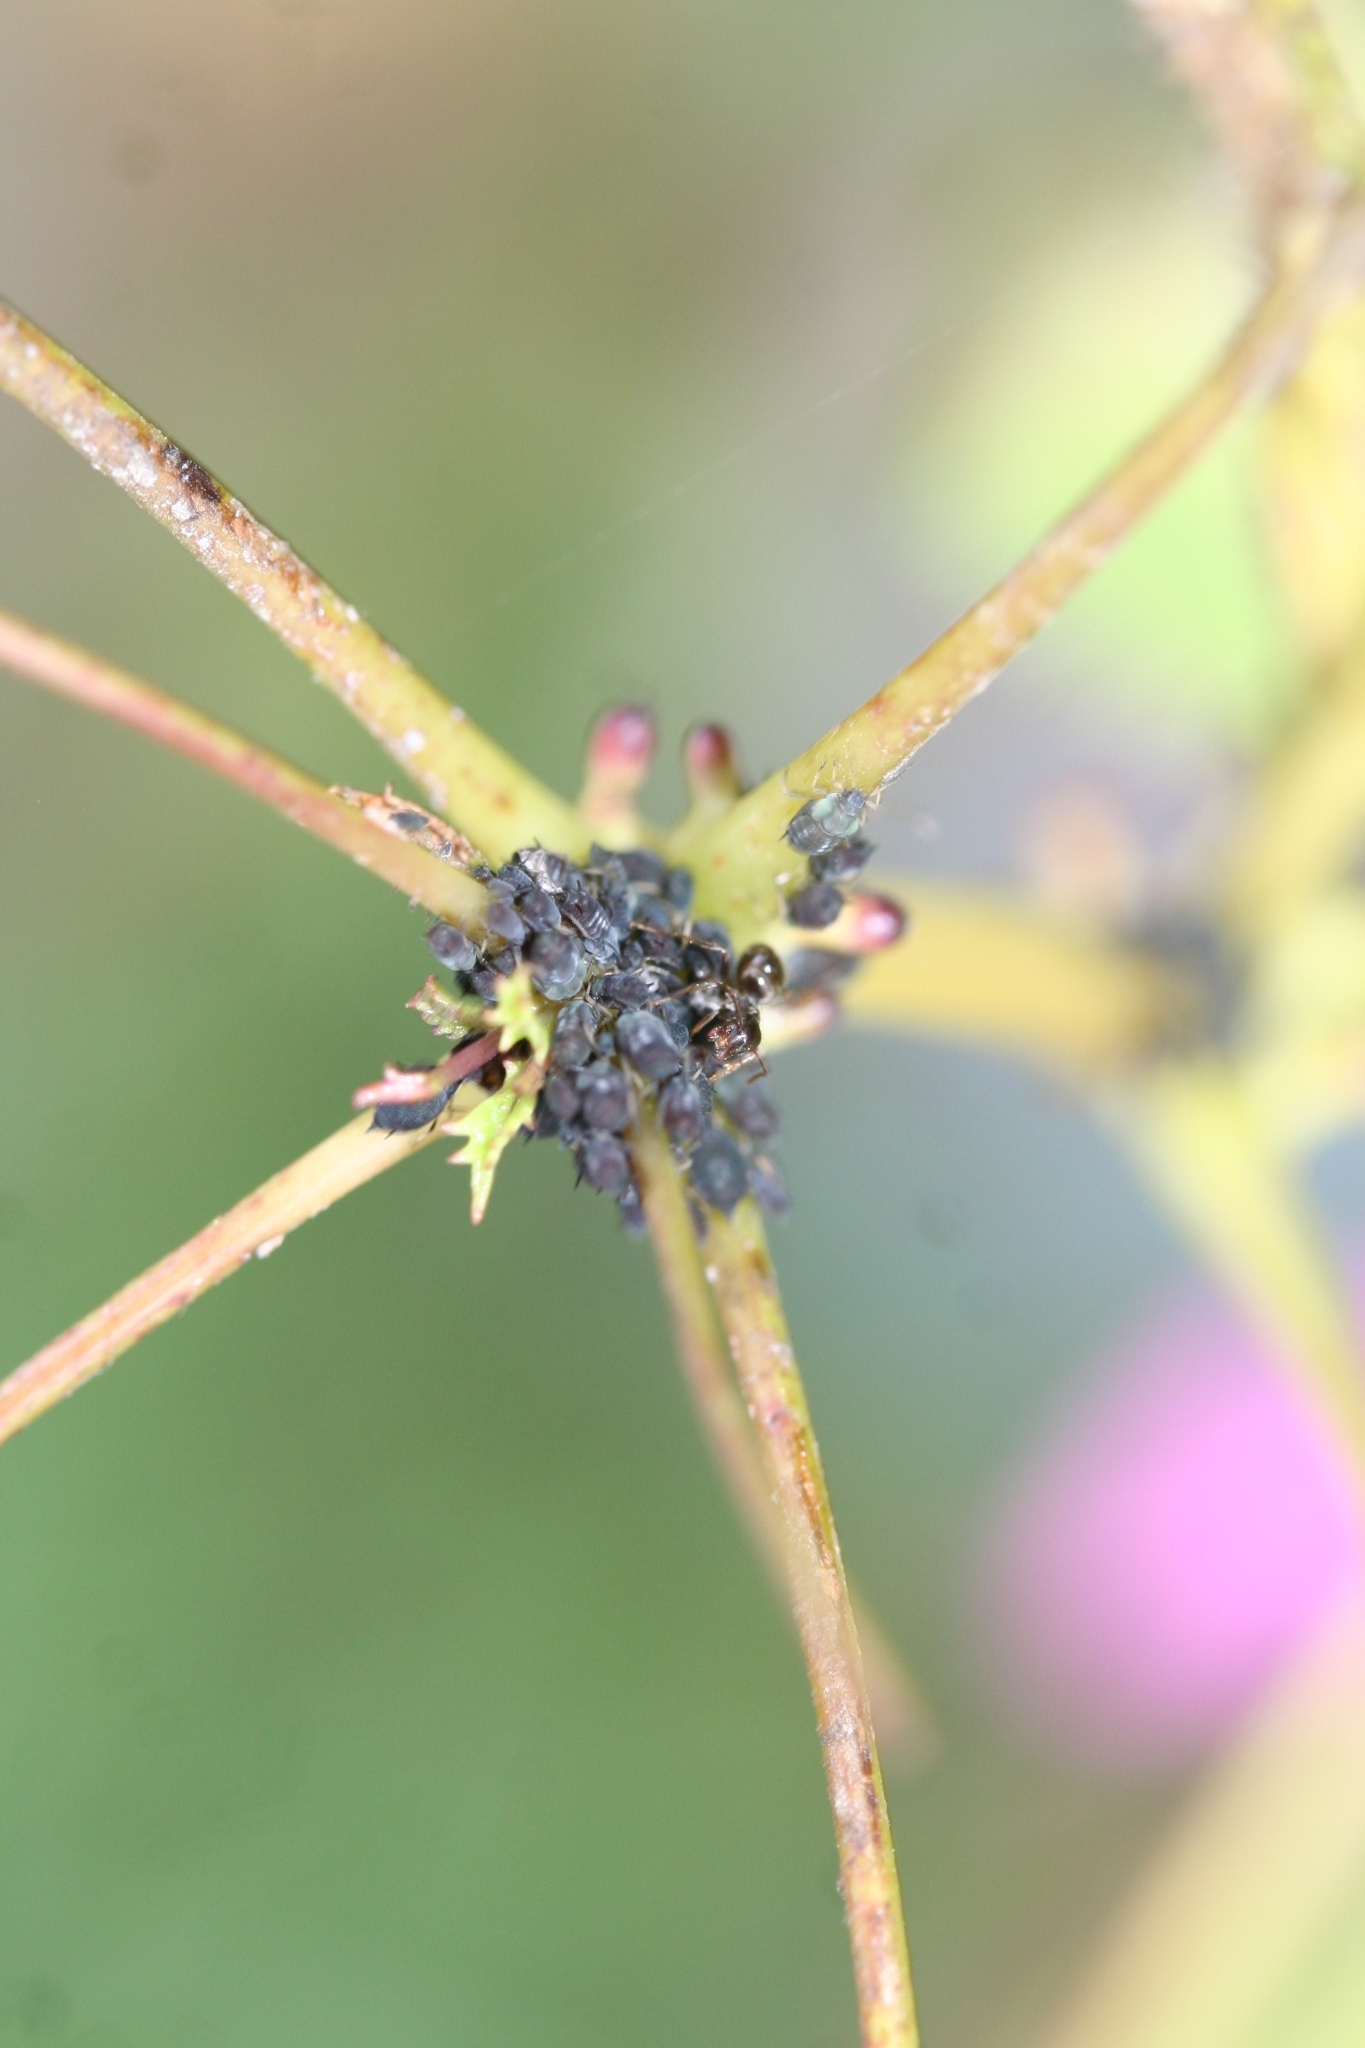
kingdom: Animalia
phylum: Arthropoda
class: Insecta
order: Hemiptera
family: Aphididae
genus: Aphis
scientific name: Aphis
